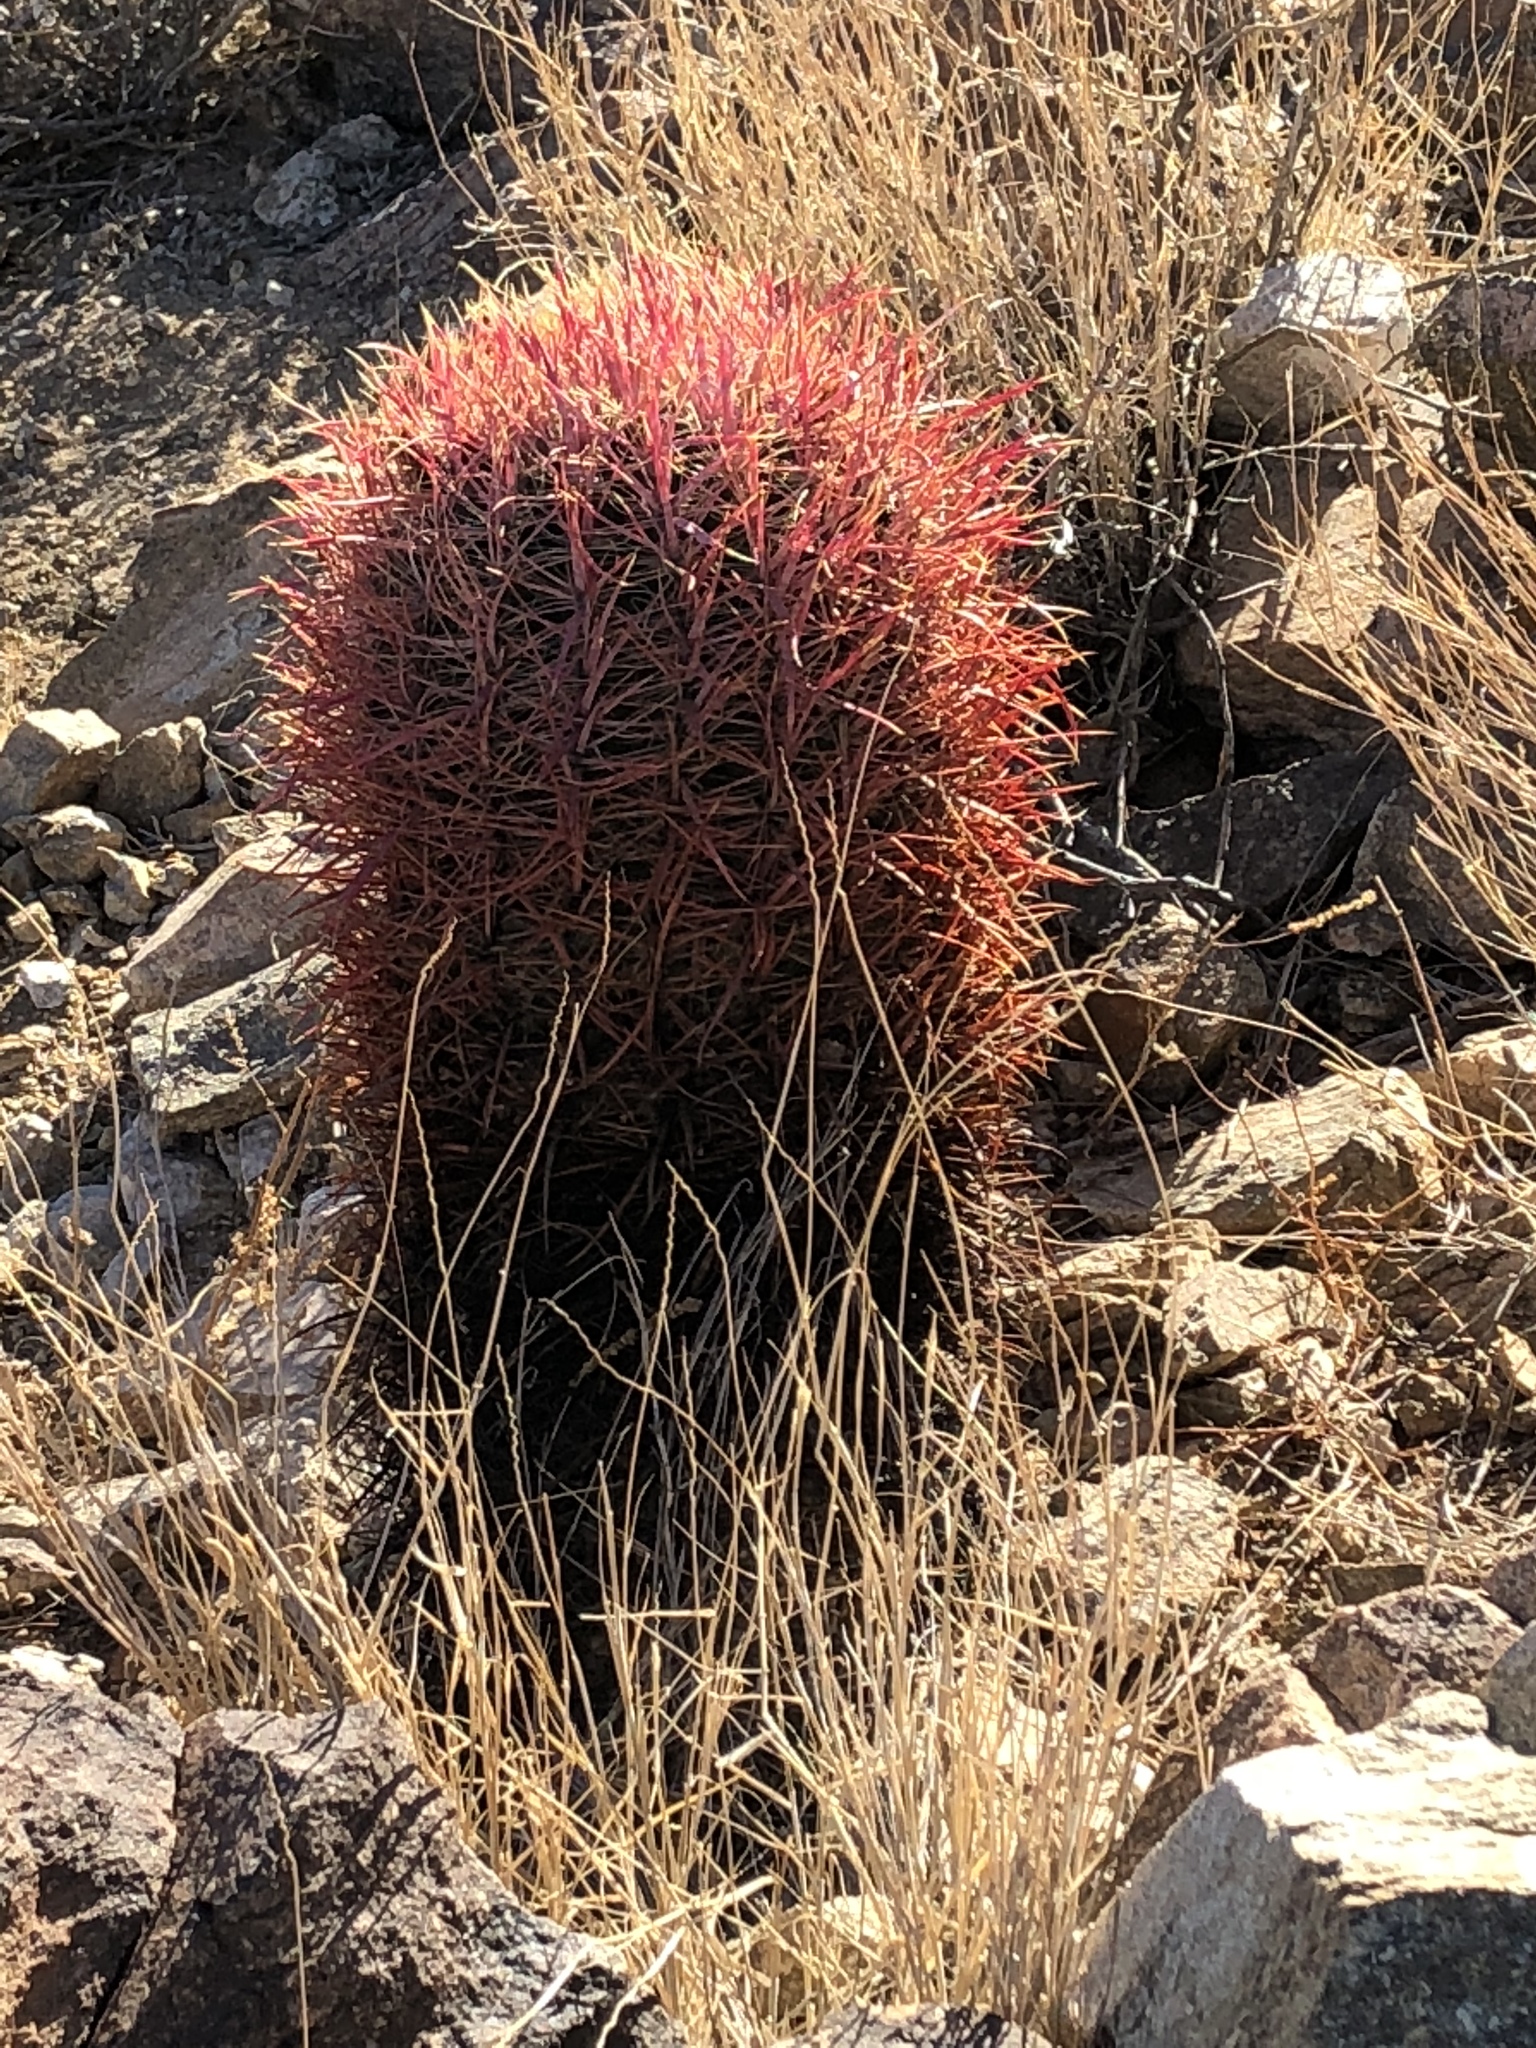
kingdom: Plantae
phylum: Tracheophyta
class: Magnoliopsida
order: Caryophyllales
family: Cactaceae
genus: Ferocactus
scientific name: Ferocactus cylindraceus
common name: California barrel cactus
